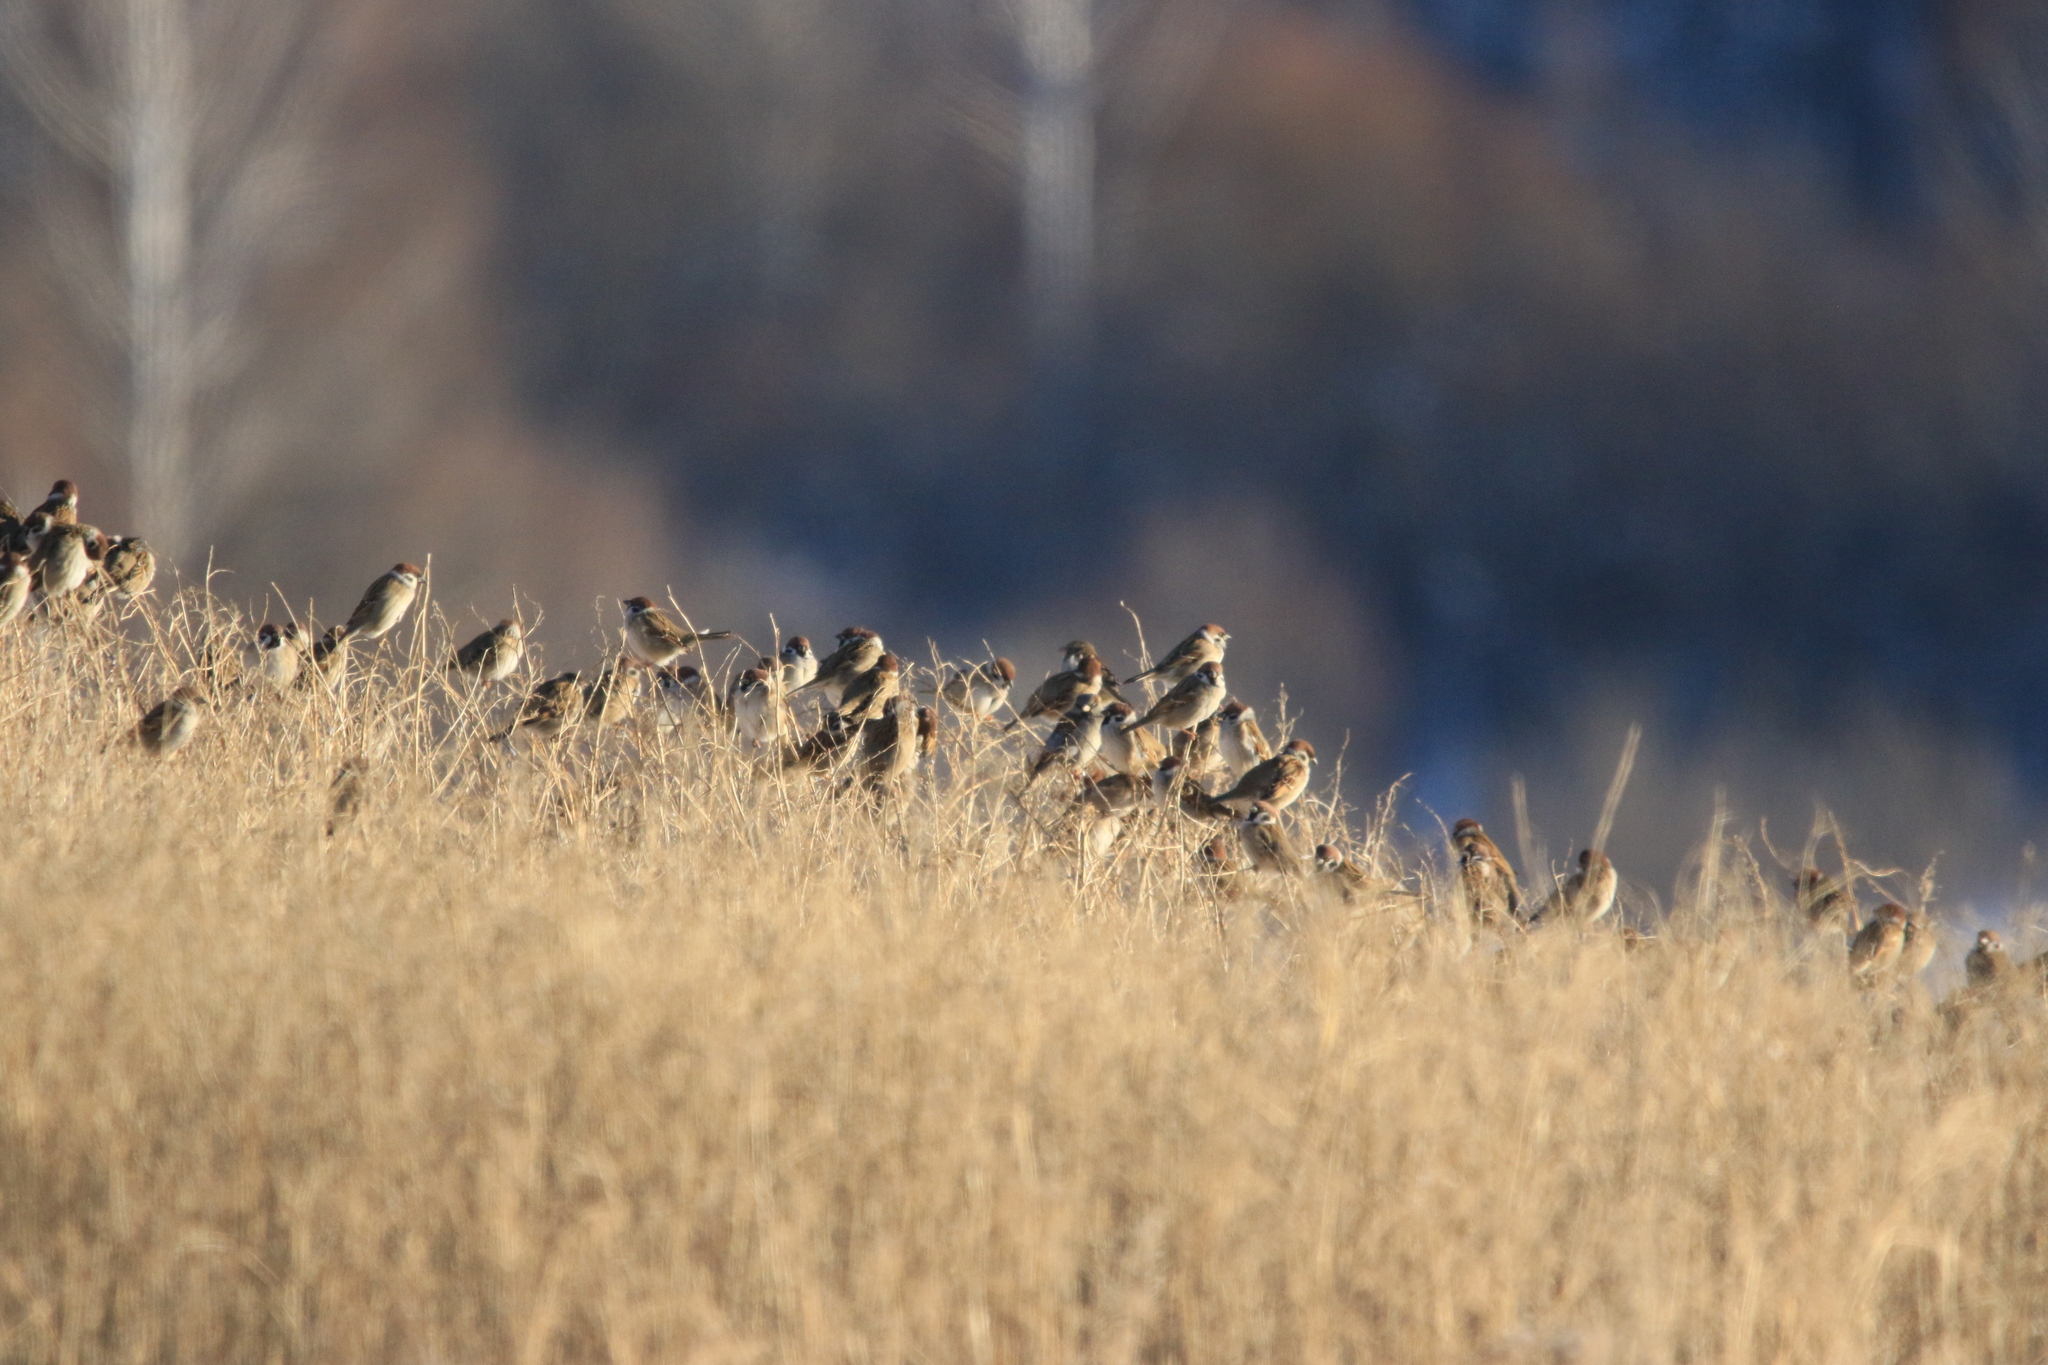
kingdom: Animalia
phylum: Chordata
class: Aves
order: Passeriformes
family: Passeridae
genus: Passer
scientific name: Passer montanus
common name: Eurasian tree sparrow
